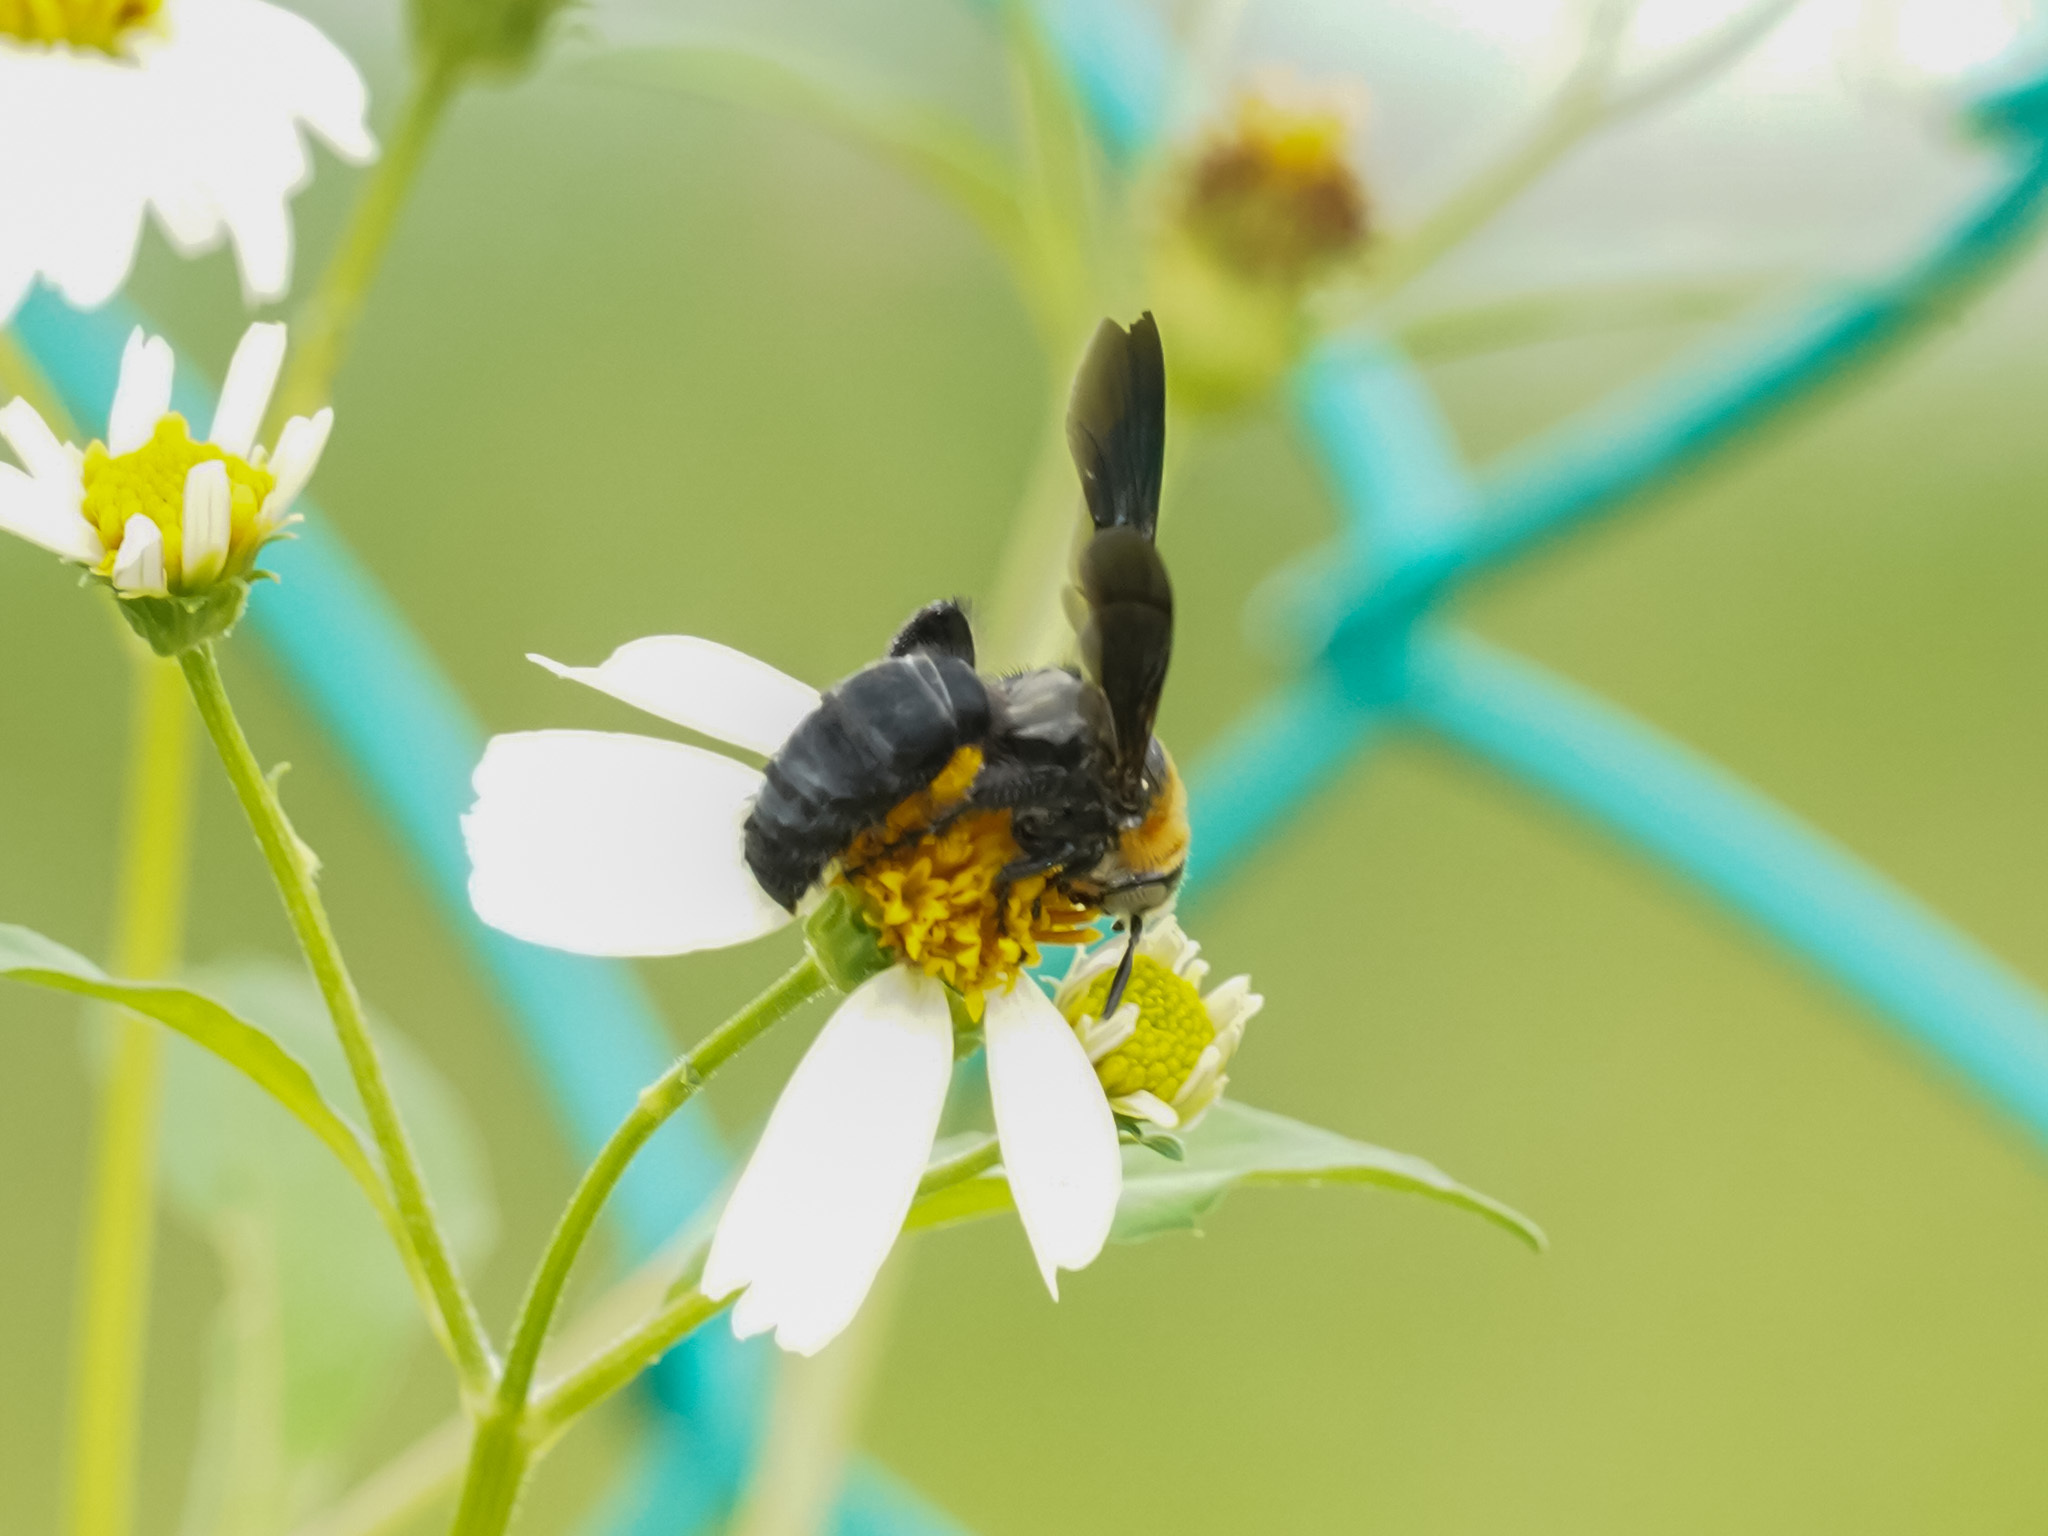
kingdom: Animalia
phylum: Arthropoda
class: Insecta
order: Hymenoptera
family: Scoliidae
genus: Campsomeriella
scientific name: Campsomeriella collaris
